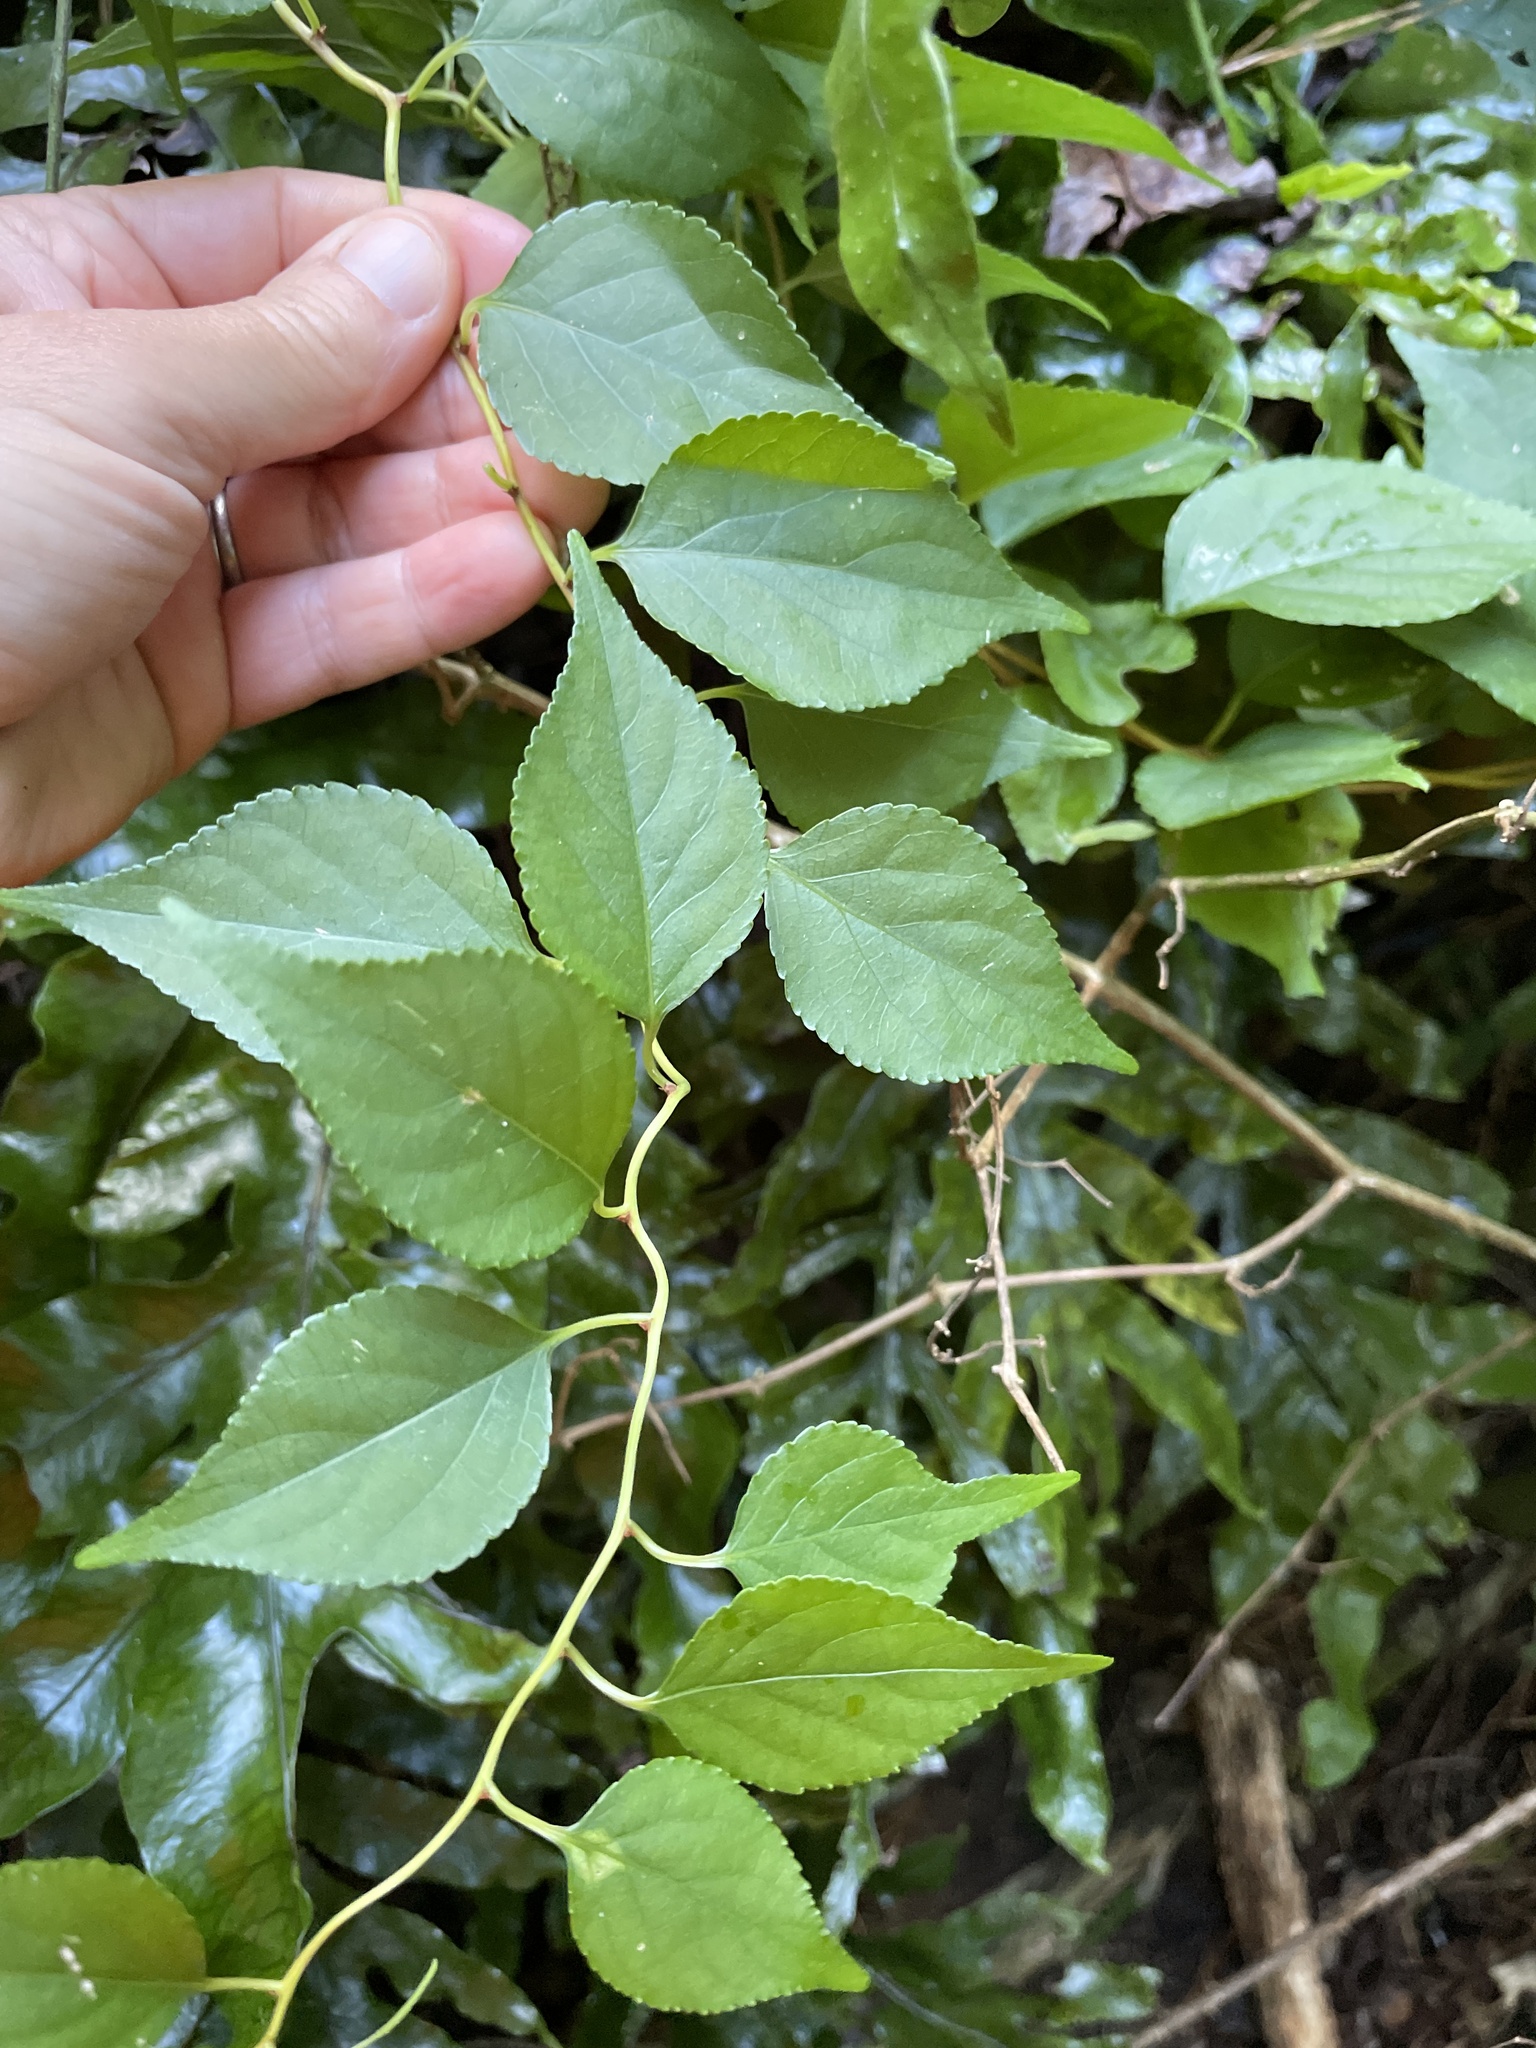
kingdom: Plantae
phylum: Tracheophyta
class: Magnoliopsida
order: Celastrales
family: Celastraceae
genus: Celastrus
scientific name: Celastrus orbiculatus
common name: Oriental bittersweet
